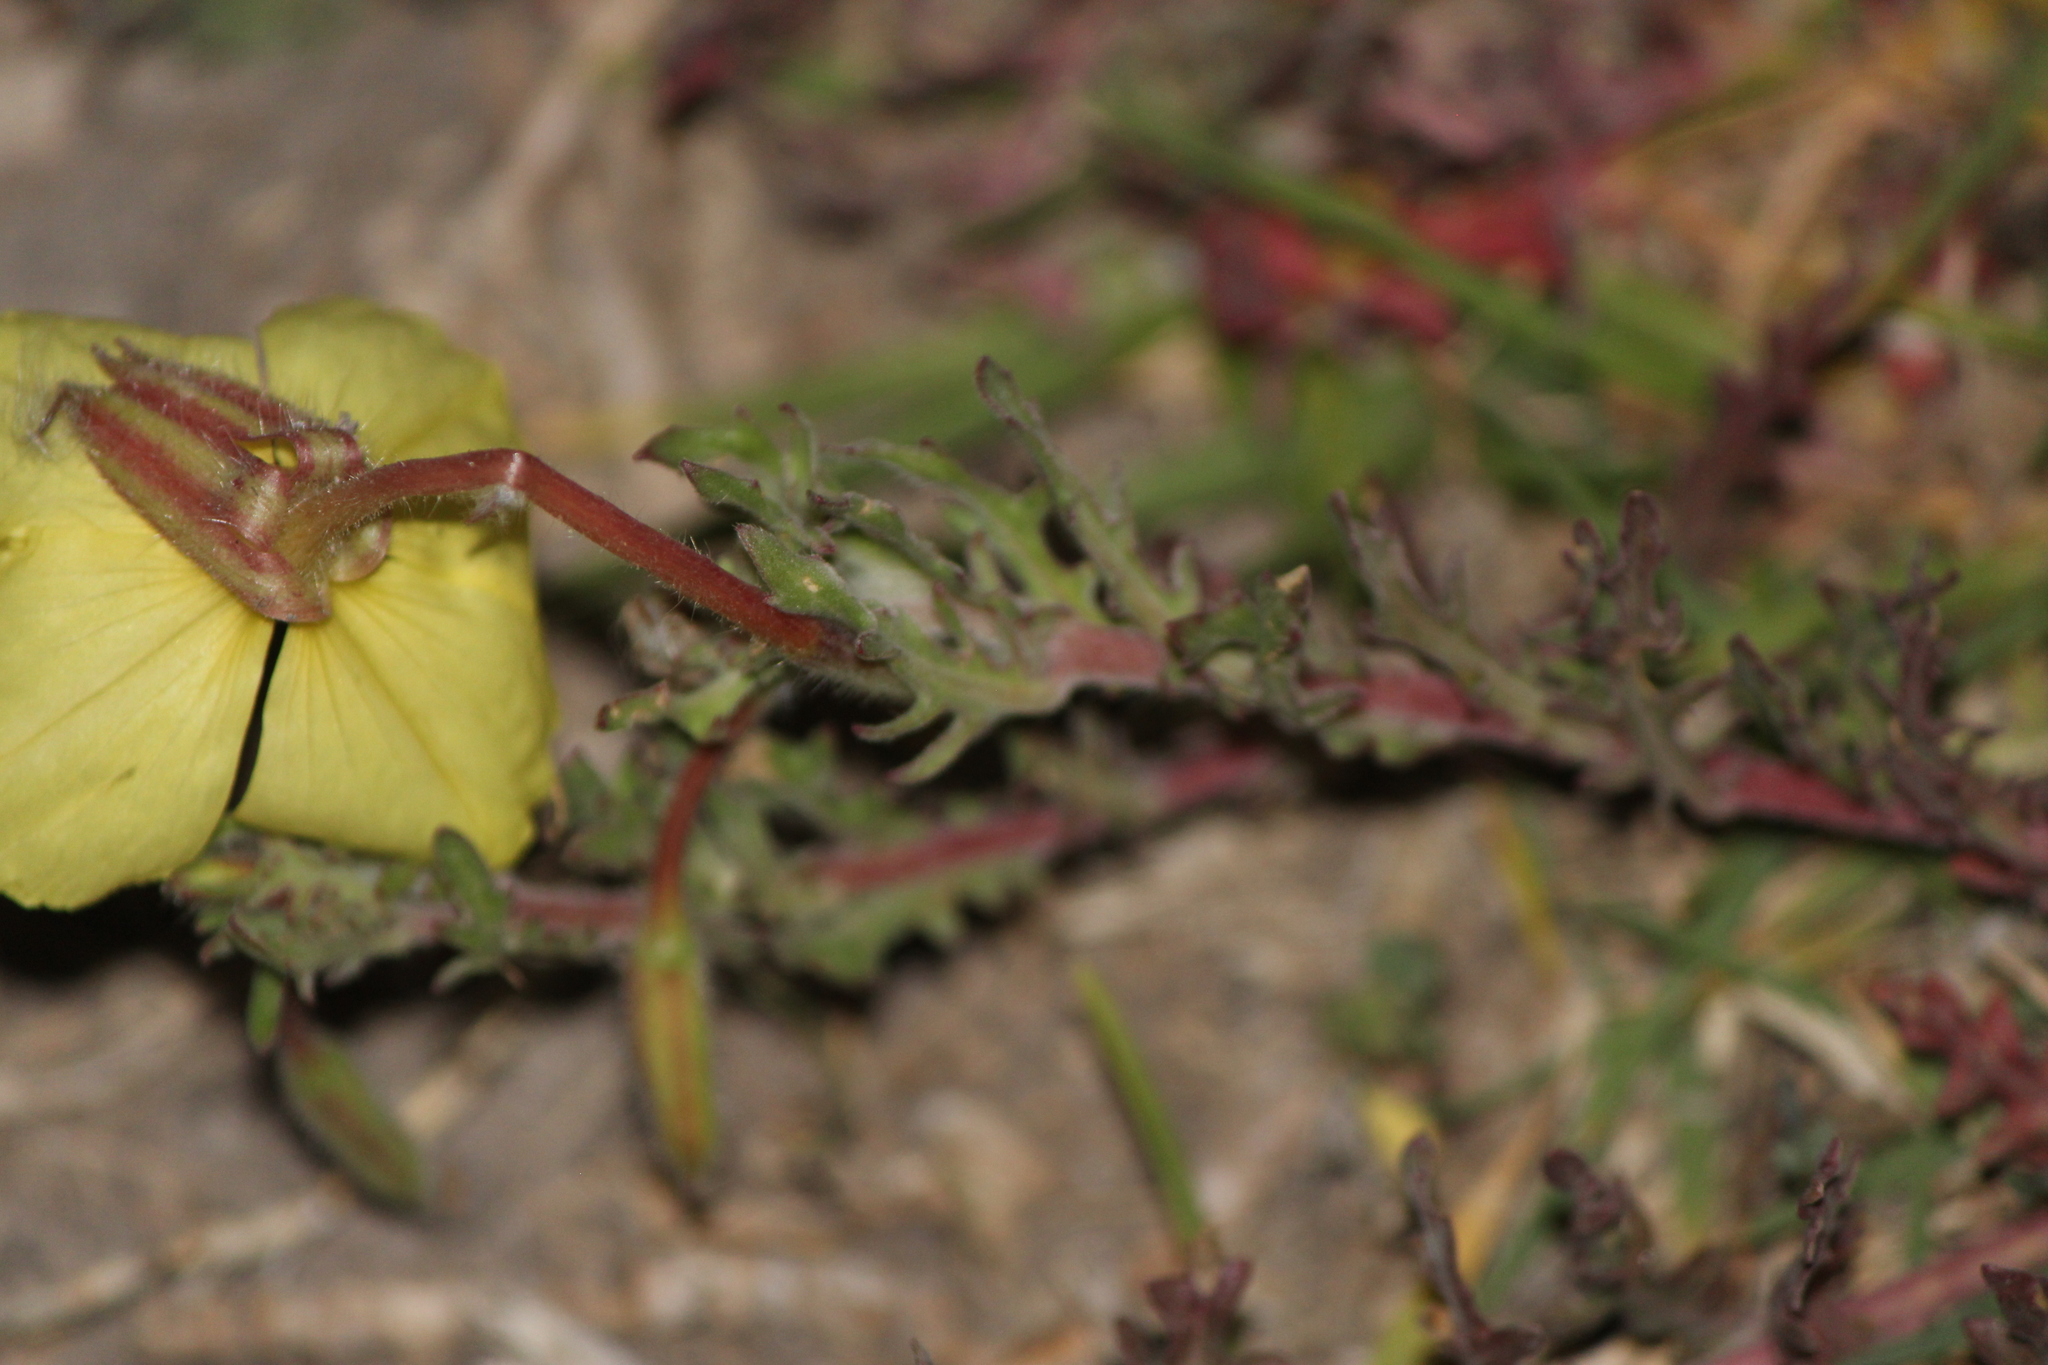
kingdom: Plantae
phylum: Tracheophyta
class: Magnoliopsida
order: Myrtales
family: Onagraceae
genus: Oenothera
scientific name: Oenothera flava
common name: Long-tubed evening-primrose
